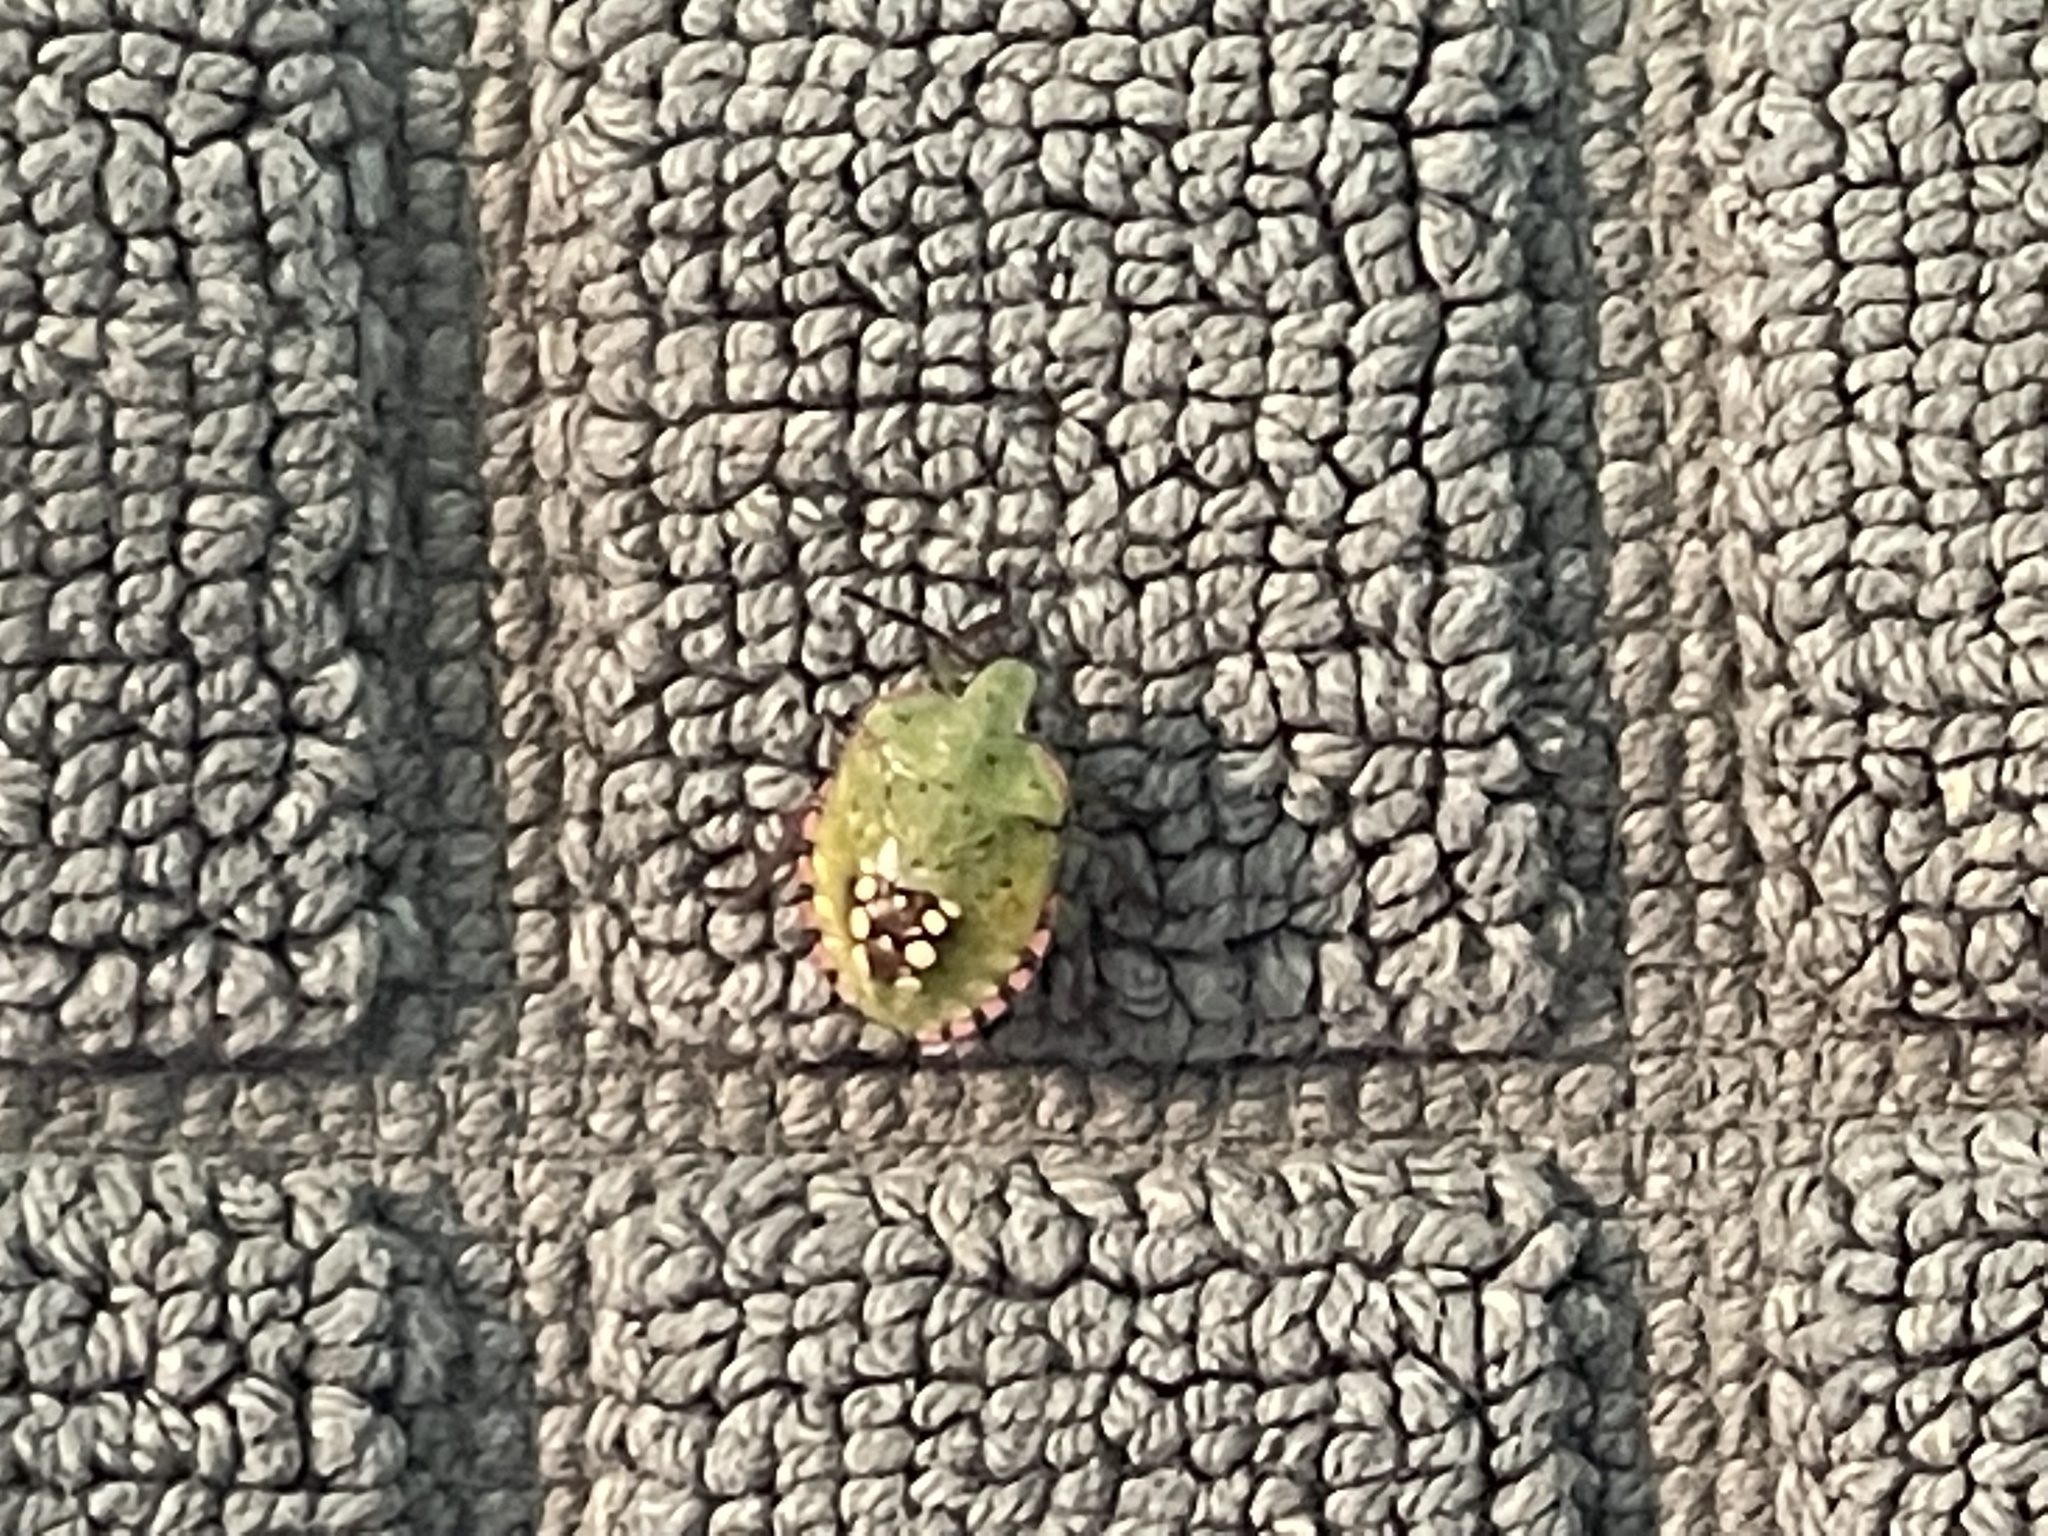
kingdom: Animalia
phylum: Arthropoda
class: Insecta
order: Hemiptera
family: Pentatomidae
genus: Nezara
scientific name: Nezara viridula
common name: Southern green stink bug
